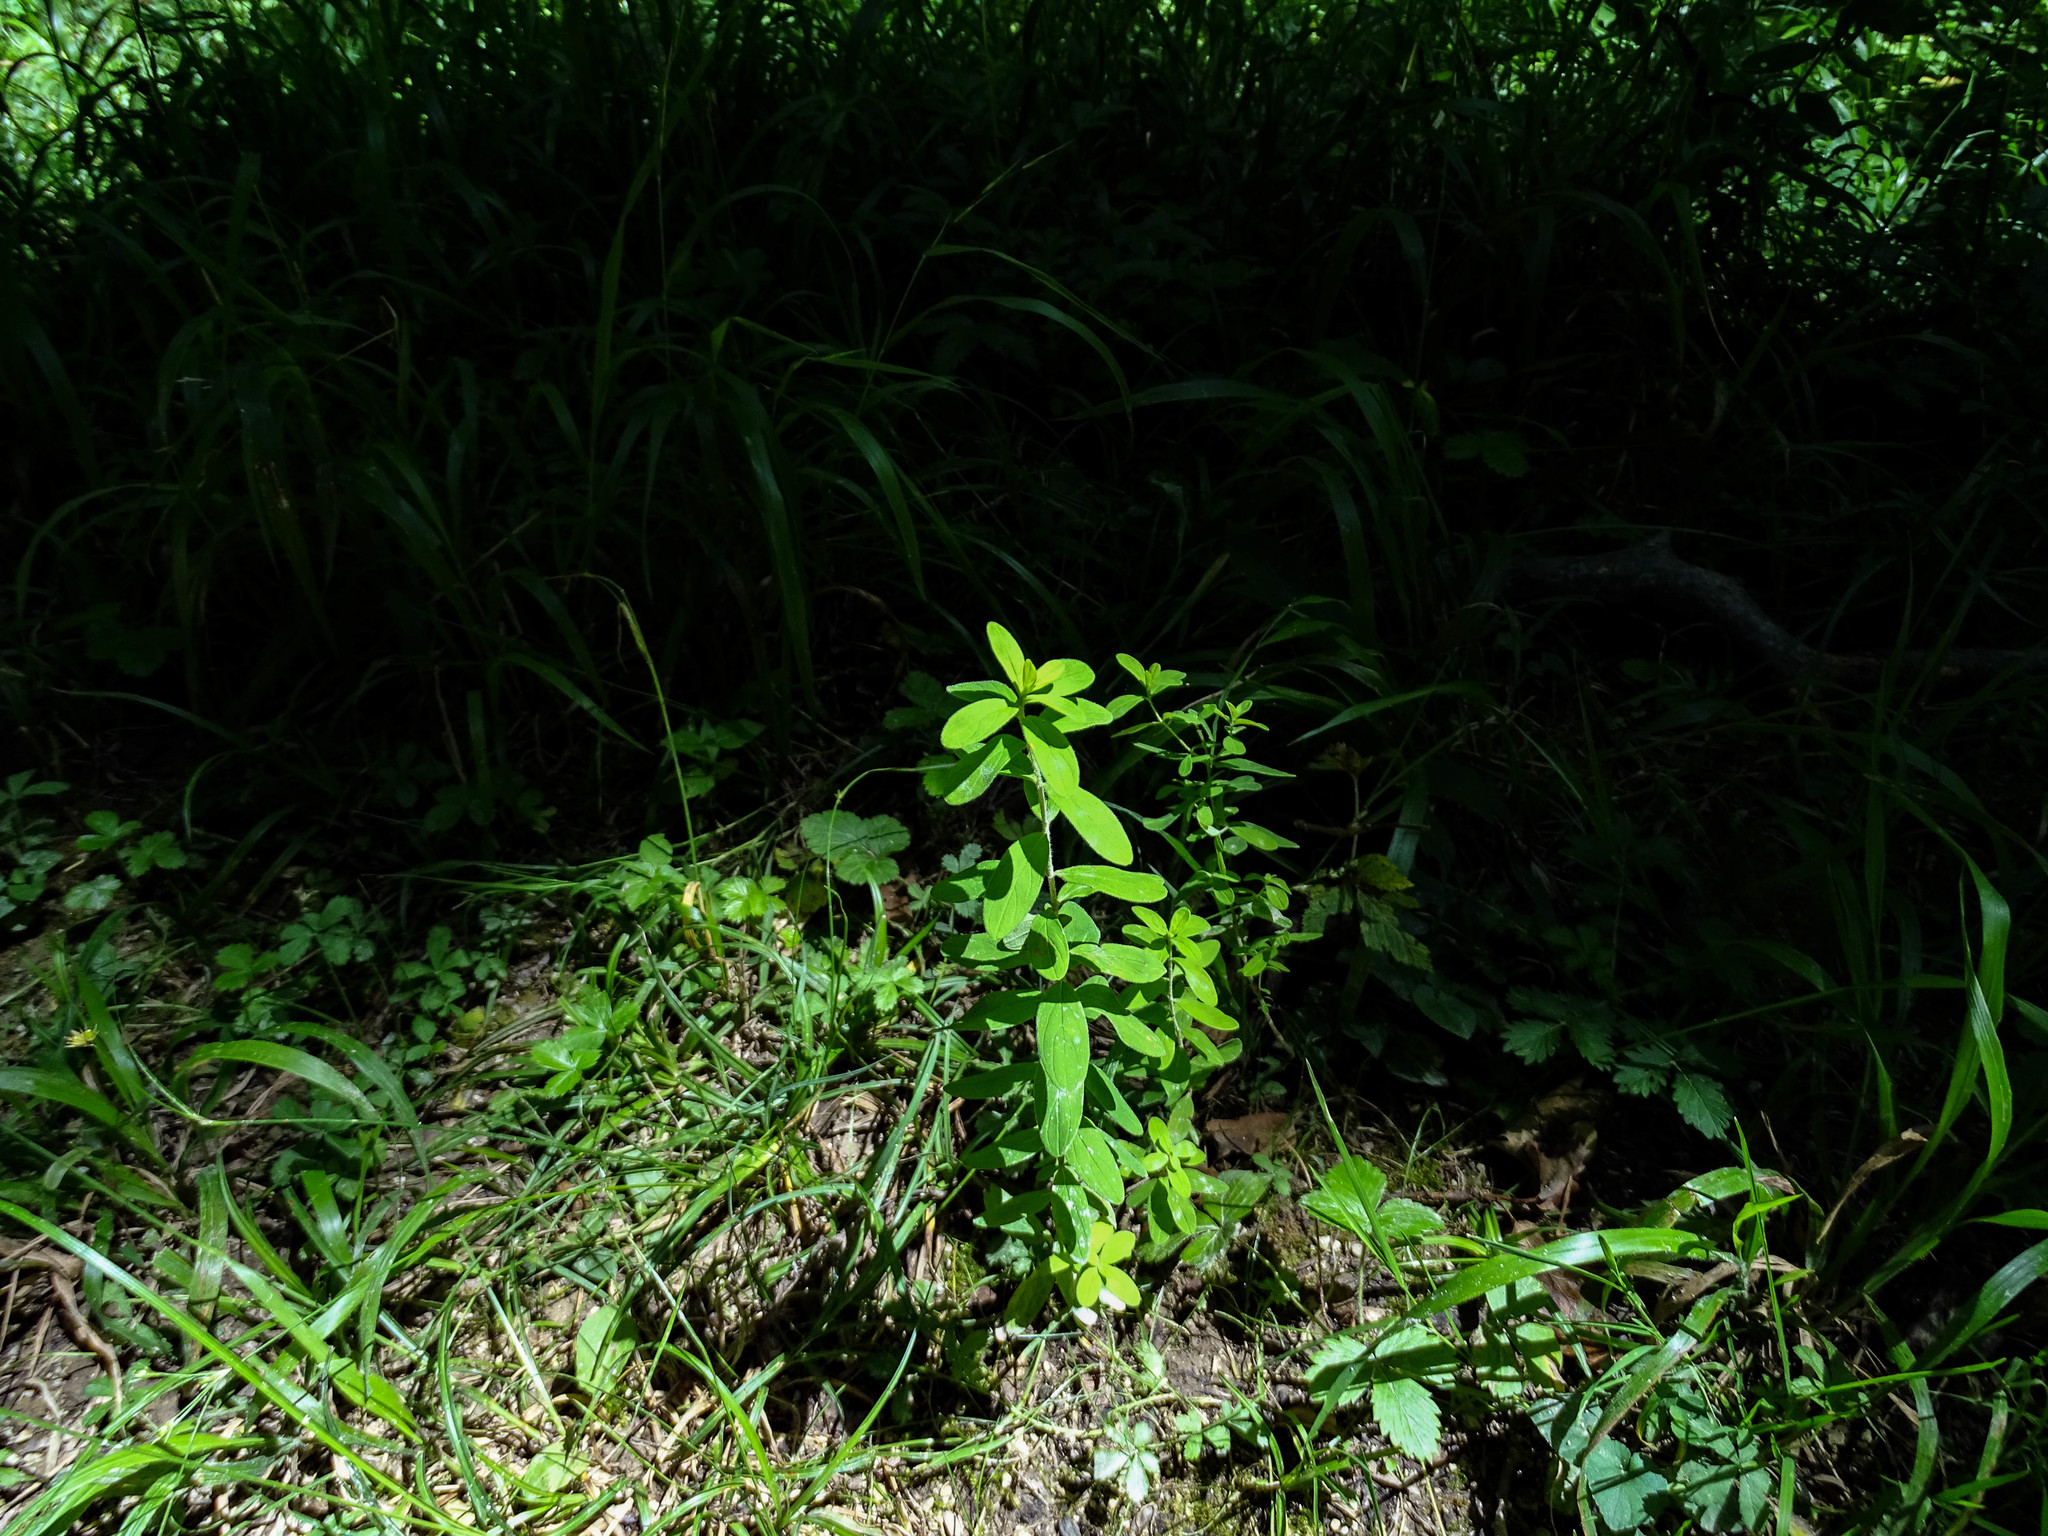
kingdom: Plantae
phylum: Tracheophyta
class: Magnoliopsida
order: Malpighiales
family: Hypericaceae
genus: Hypericum
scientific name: Hypericum hirsutum
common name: Hairy st. john's-wort
